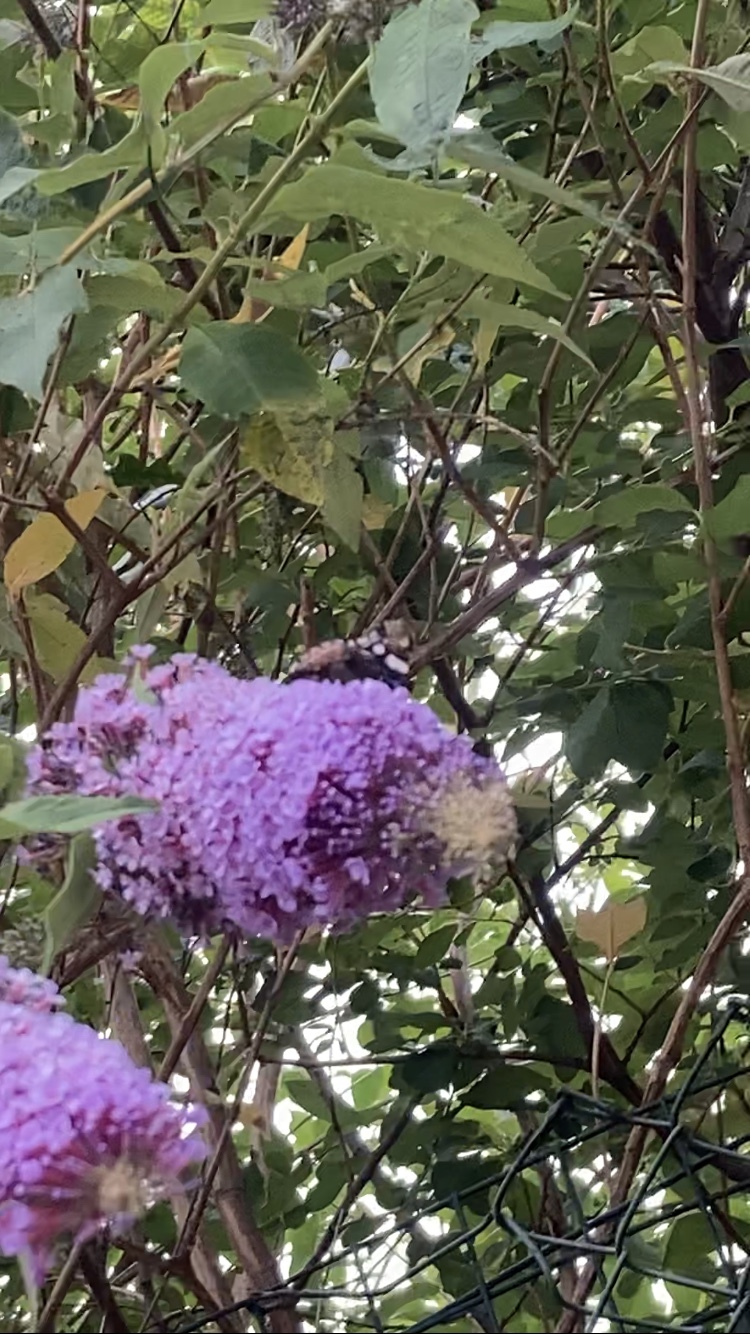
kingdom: Animalia
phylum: Arthropoda
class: Insecta
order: Lepidoptera
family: Nymphalidae
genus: Vanessa
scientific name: Vanessa atalanta
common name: Red admiral
